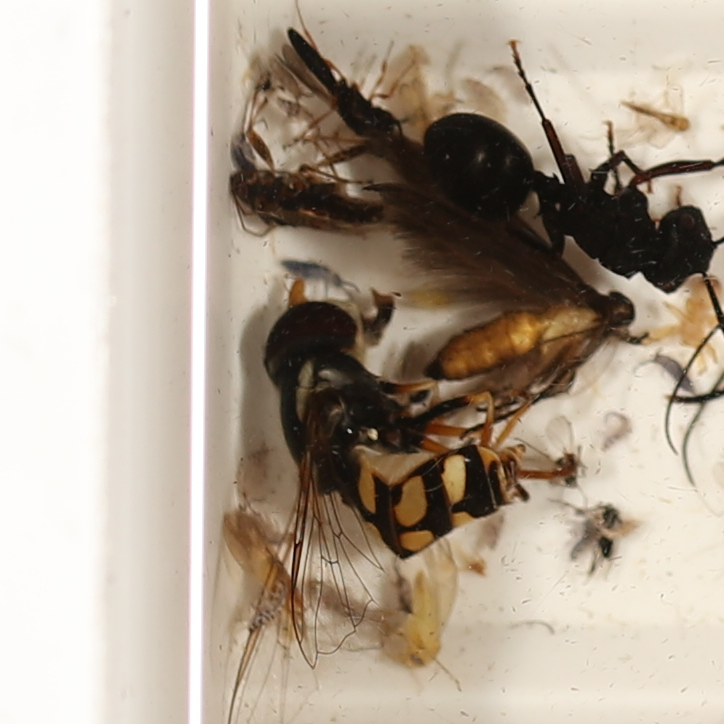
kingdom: Animalia
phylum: Arthropoda
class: Insecta
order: Diptera
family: Syrphidae
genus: Simosyrphus
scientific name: Simosyrphus grandicornis
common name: Hoverfly
